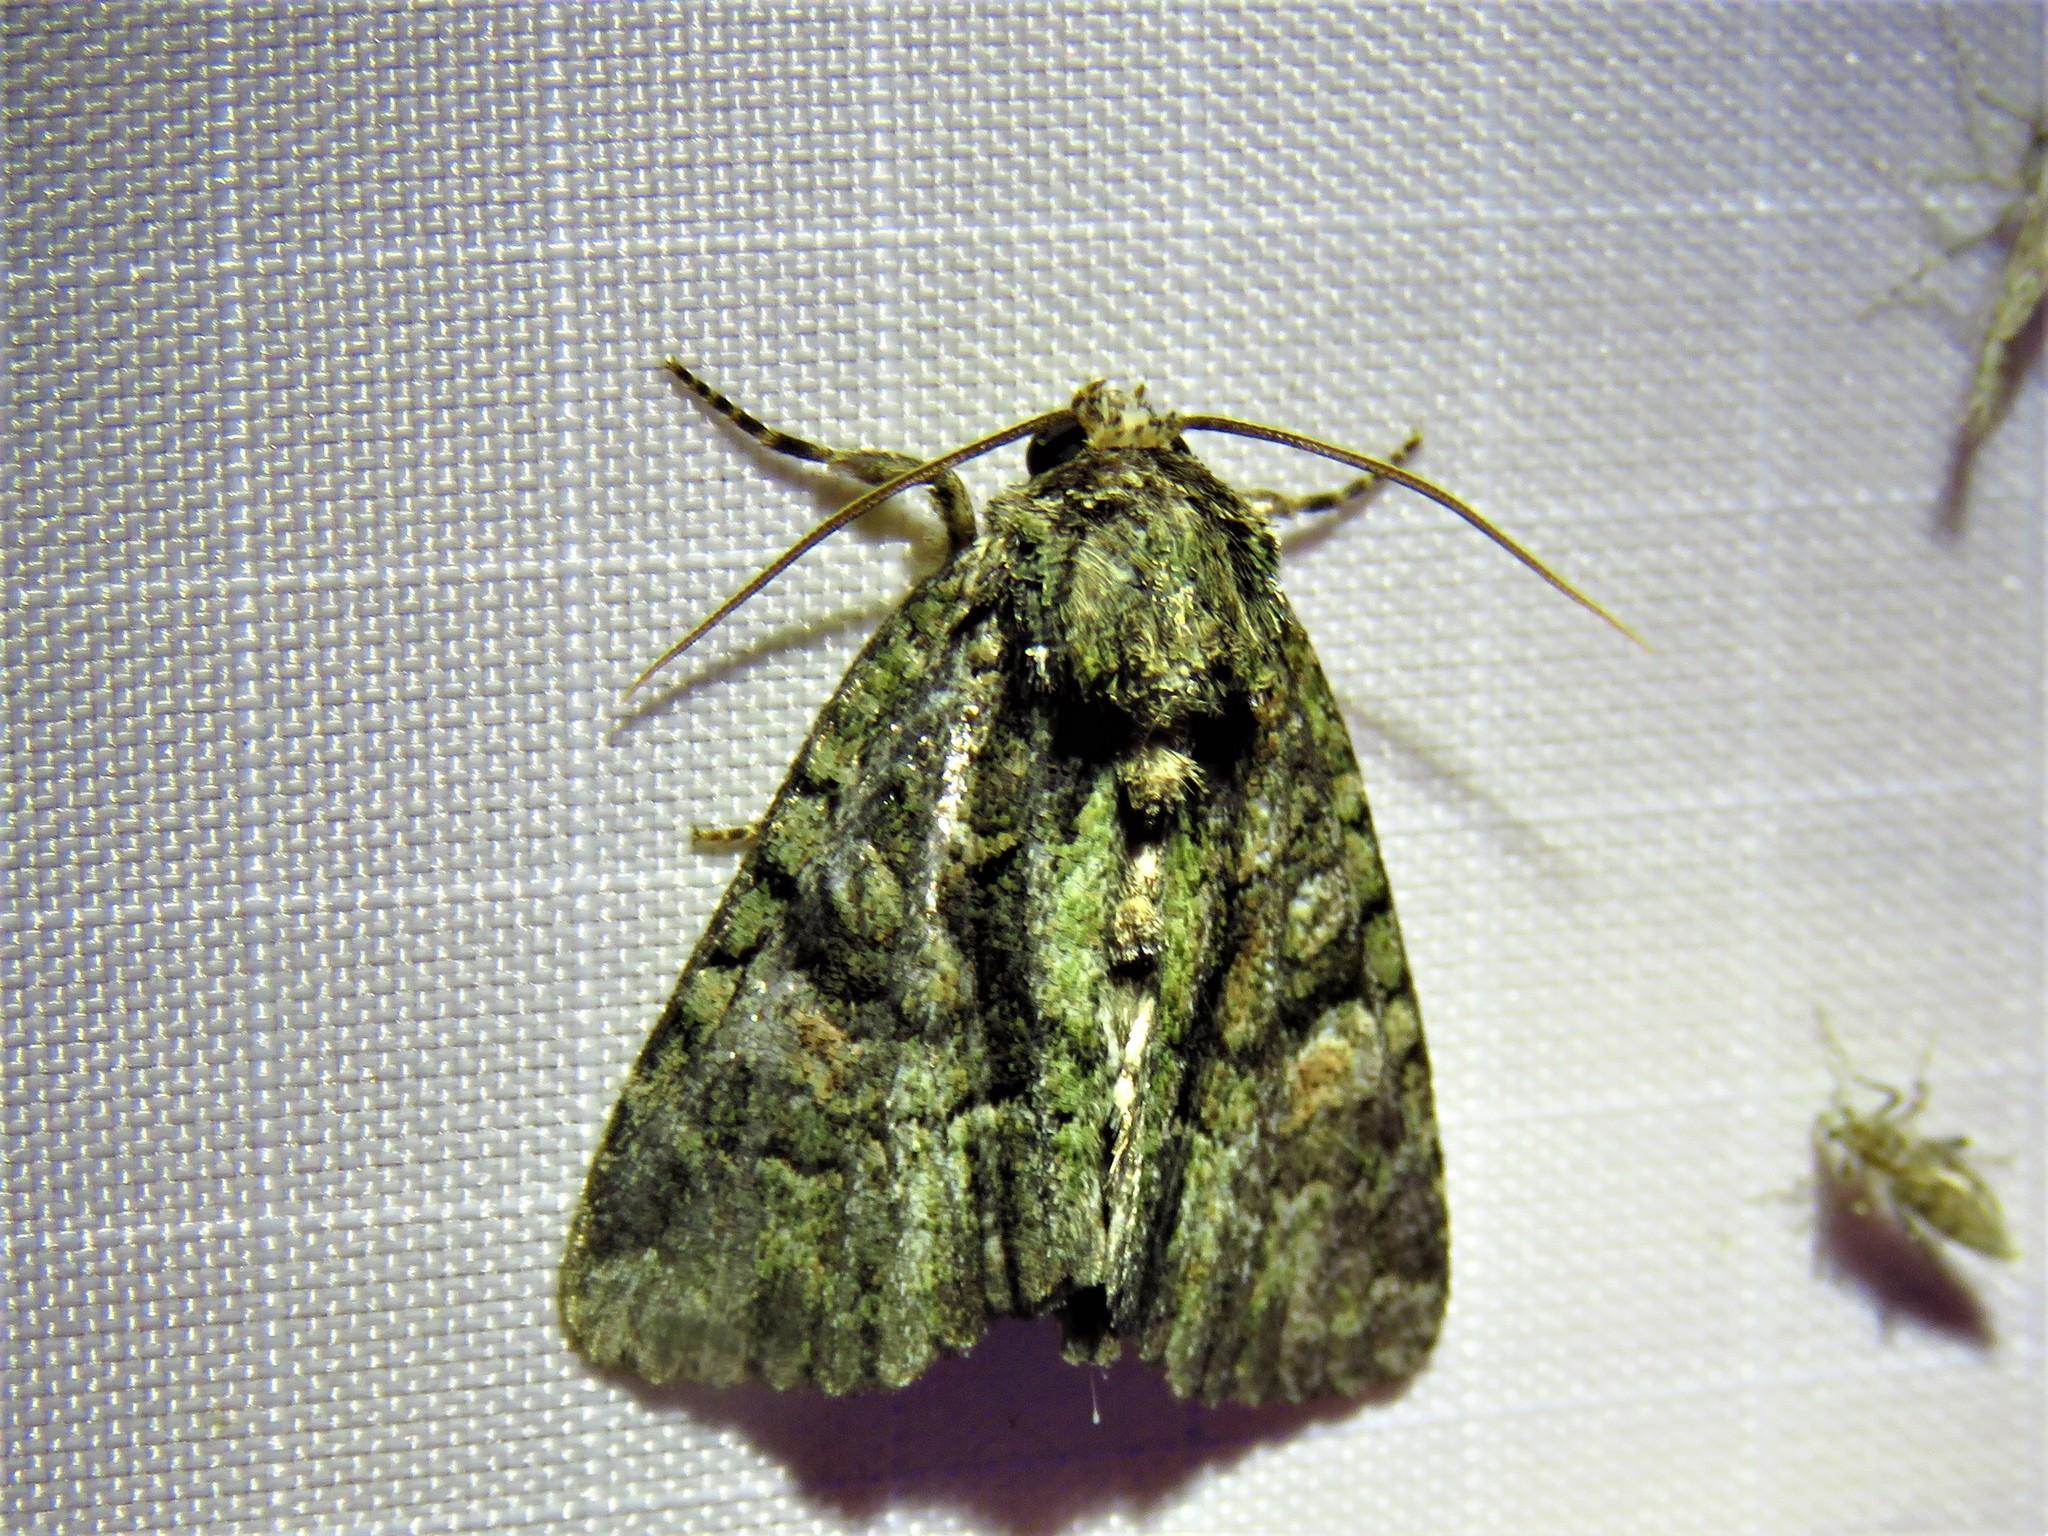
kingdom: Animalia
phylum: Arthropoda
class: Insecta
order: Lepidoptera
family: Noctuidae
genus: Phosphila
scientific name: Phosphila miselioides
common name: Spotted phosphila moth
